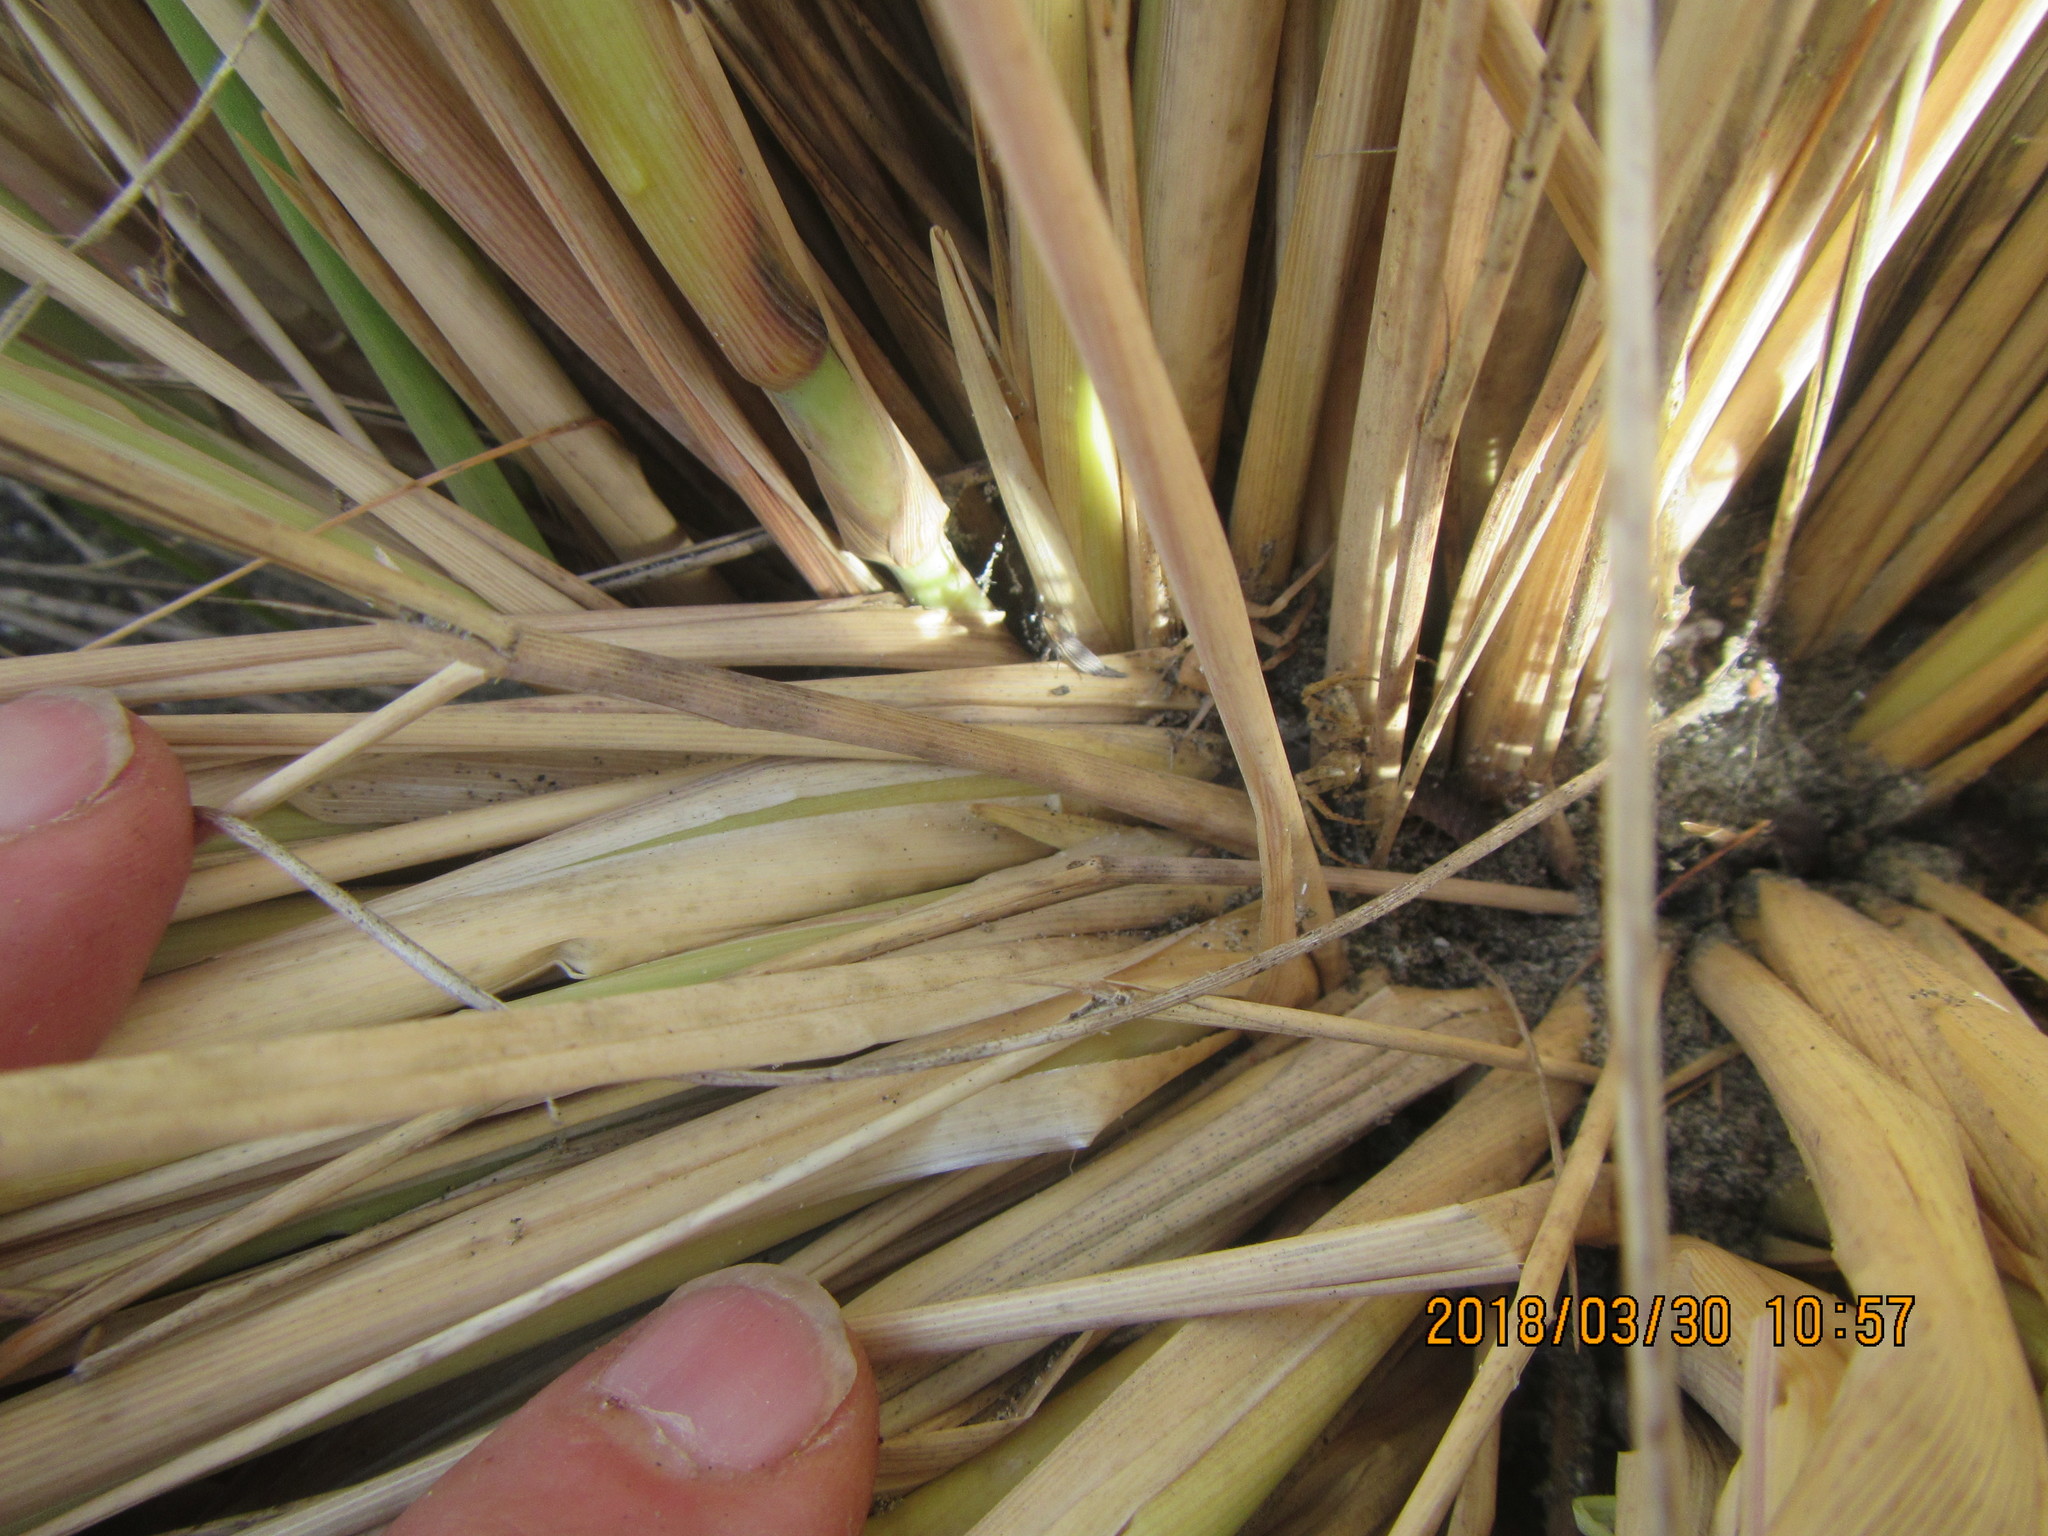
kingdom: Animalia
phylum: Arthropoda
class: Arachnida
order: Araneae
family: Thomisidae
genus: Sidymella
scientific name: Sidymella trapezia
